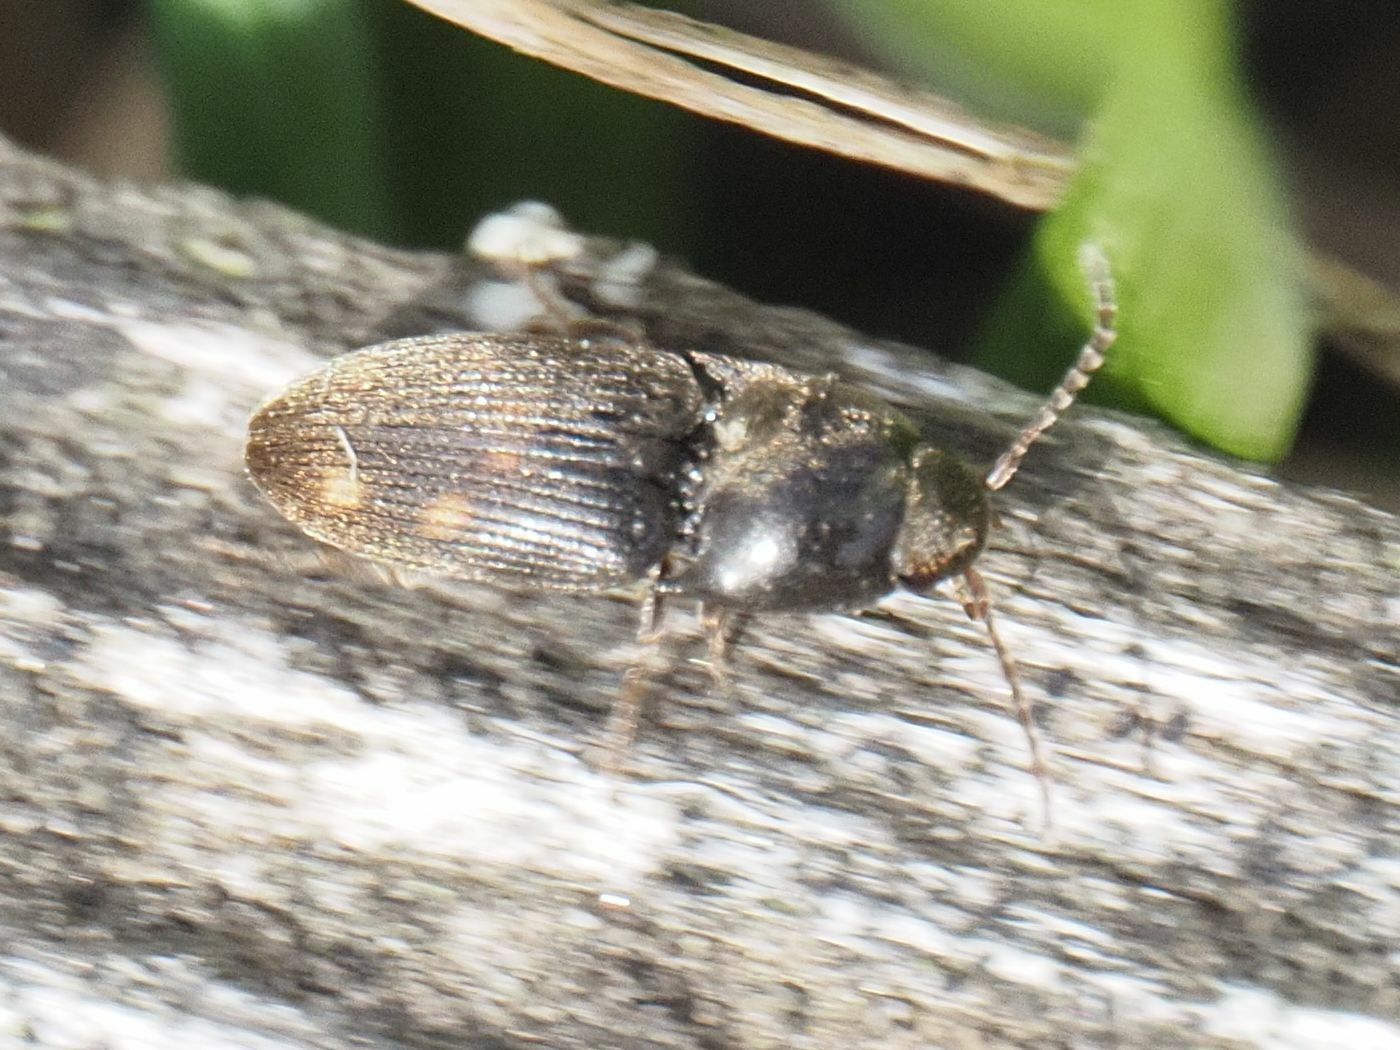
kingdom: Animalia
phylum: Arthropoda
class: Insecta
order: Coleoptera
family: Elateridae
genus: Drasterius
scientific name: Drasterius bimaculatus
